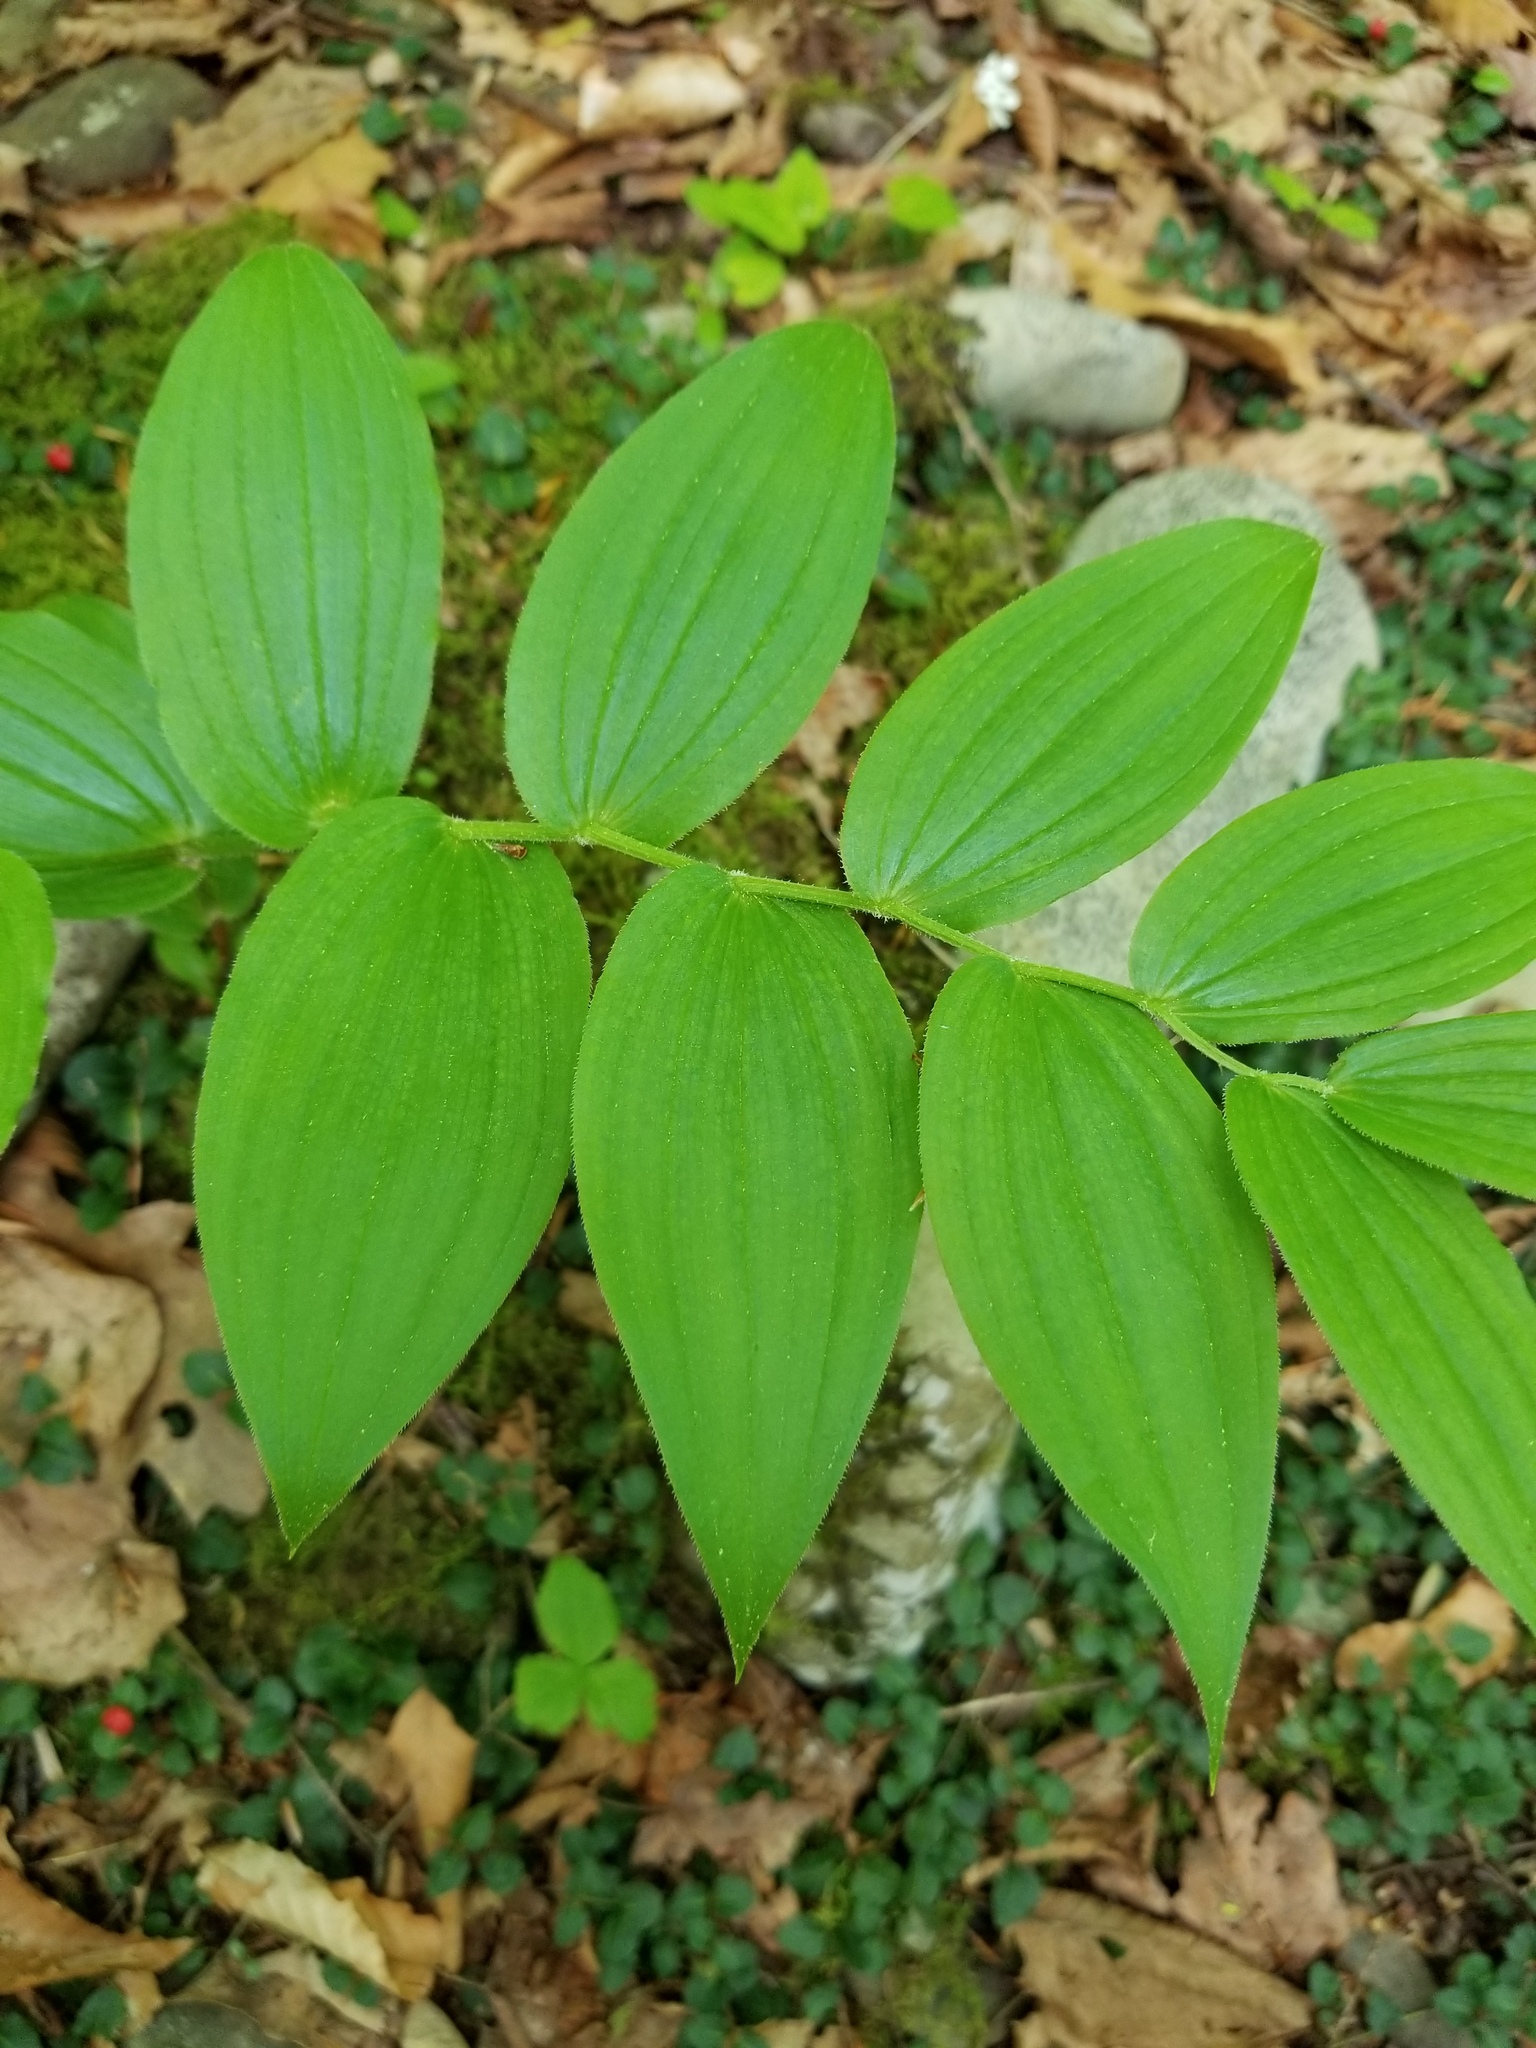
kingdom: Plantae
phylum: Tracheophyta
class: Liliopsida
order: Liliales
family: Liliaceae
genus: Streptopus
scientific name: Streptopus lanceolatus
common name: Rose mandarin
